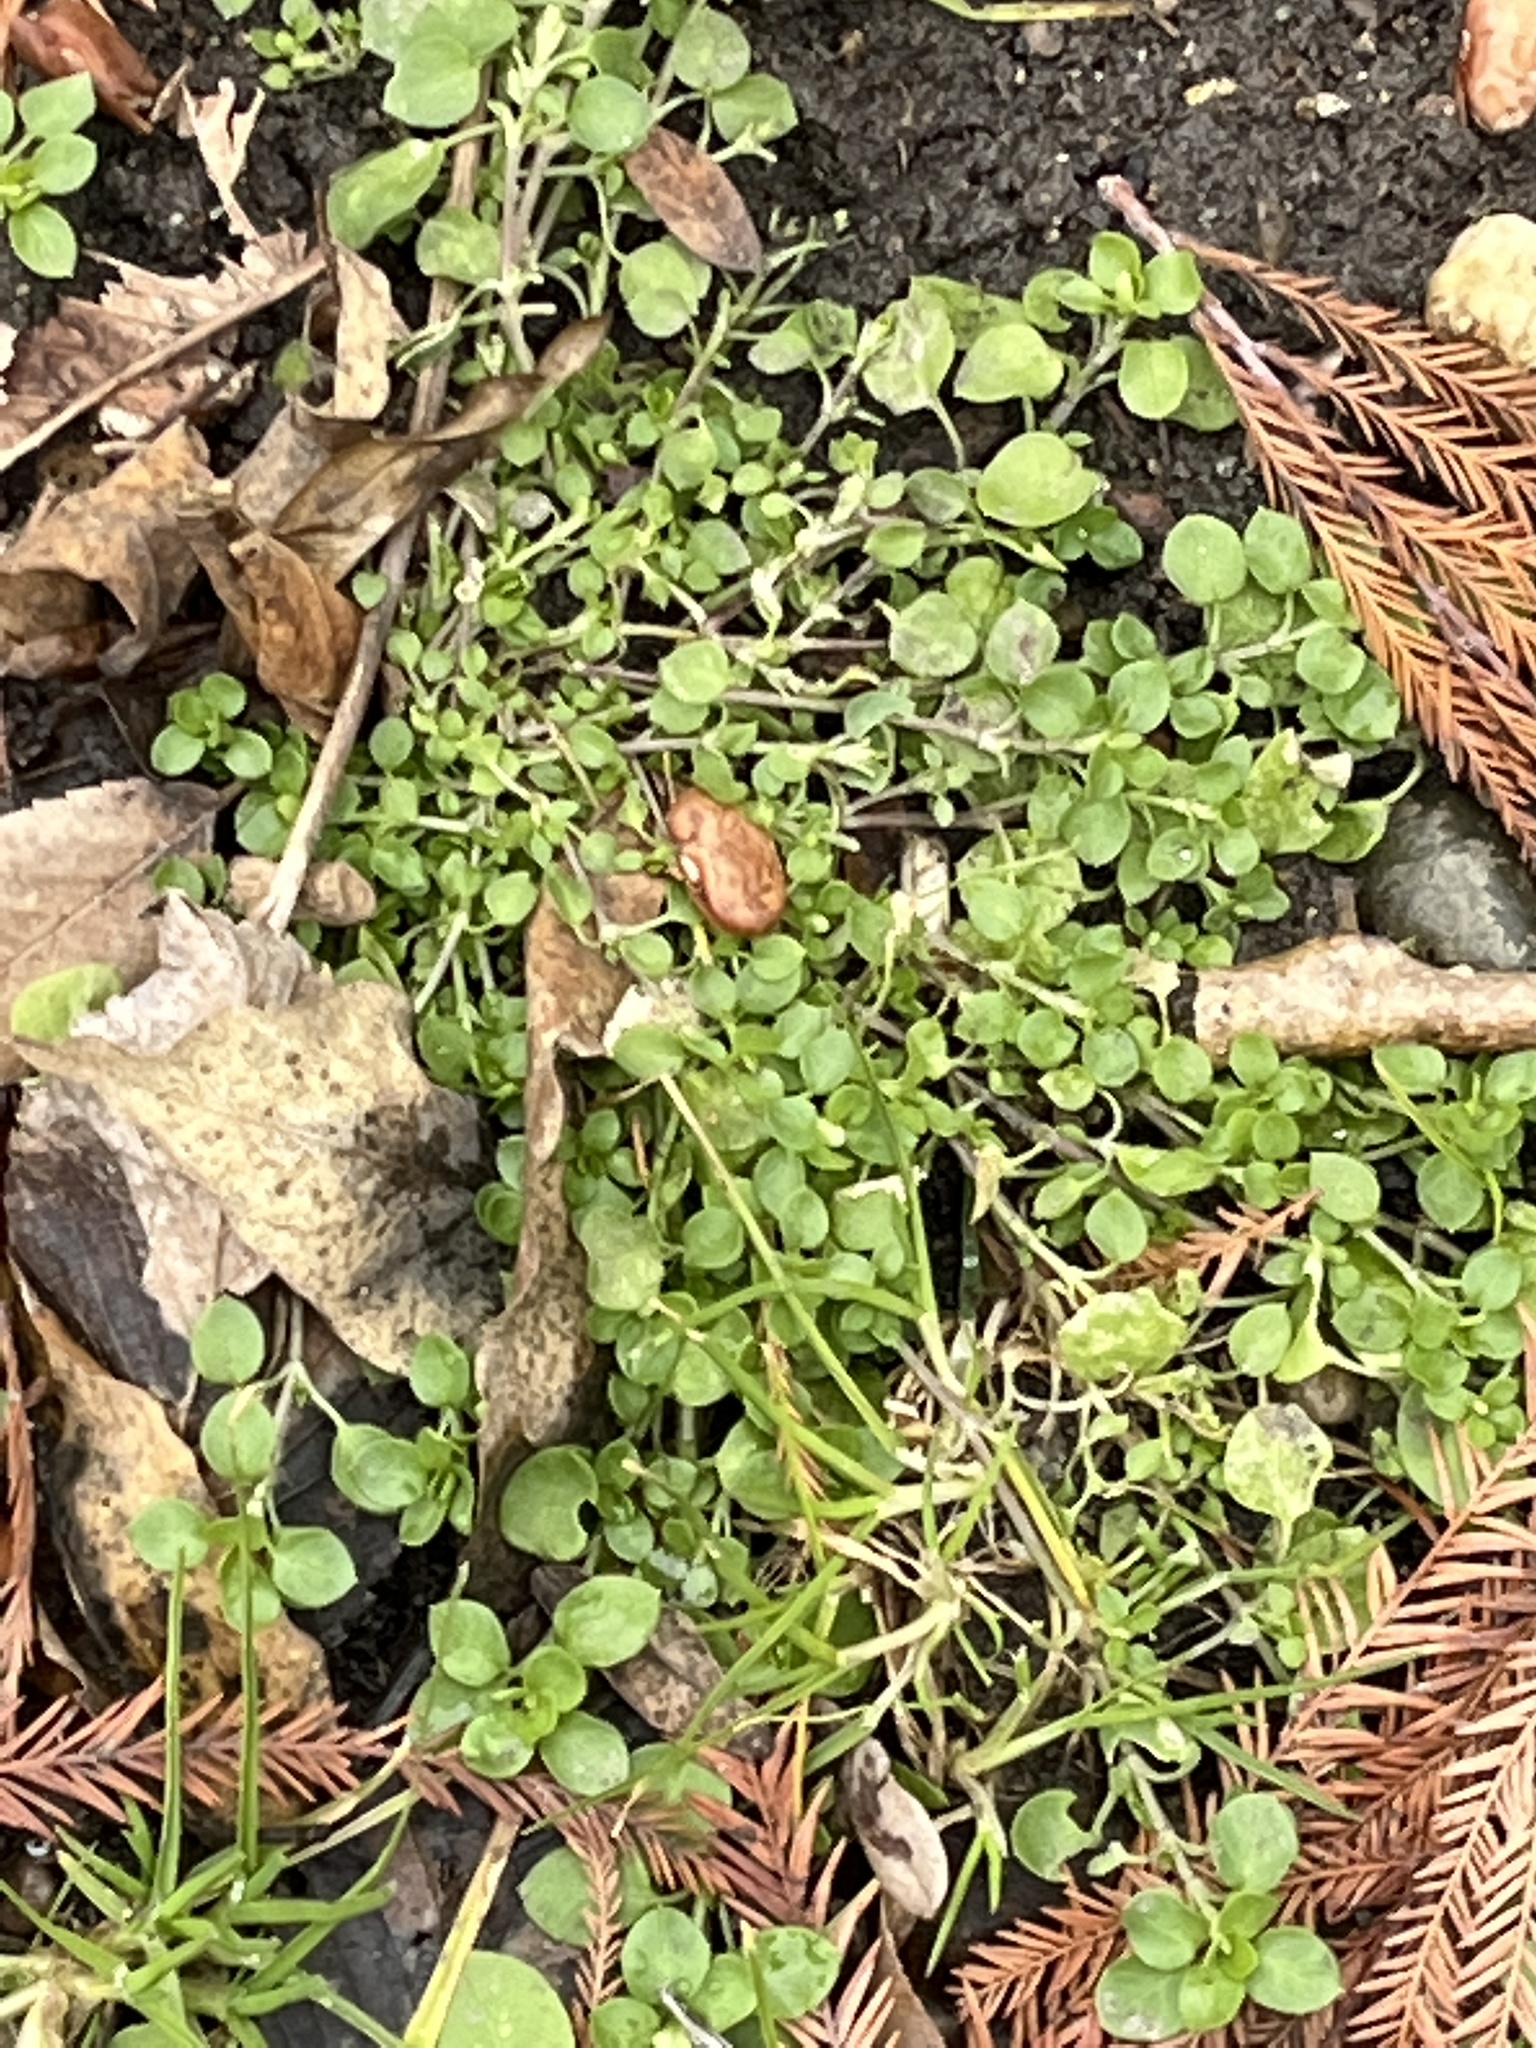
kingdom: Plantae
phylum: Tracheophyta
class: Magnoliopsida
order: Brassicales
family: Brassicaceae
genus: Cardamine
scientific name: Cardamine hirsuta
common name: Hairy bittercress
